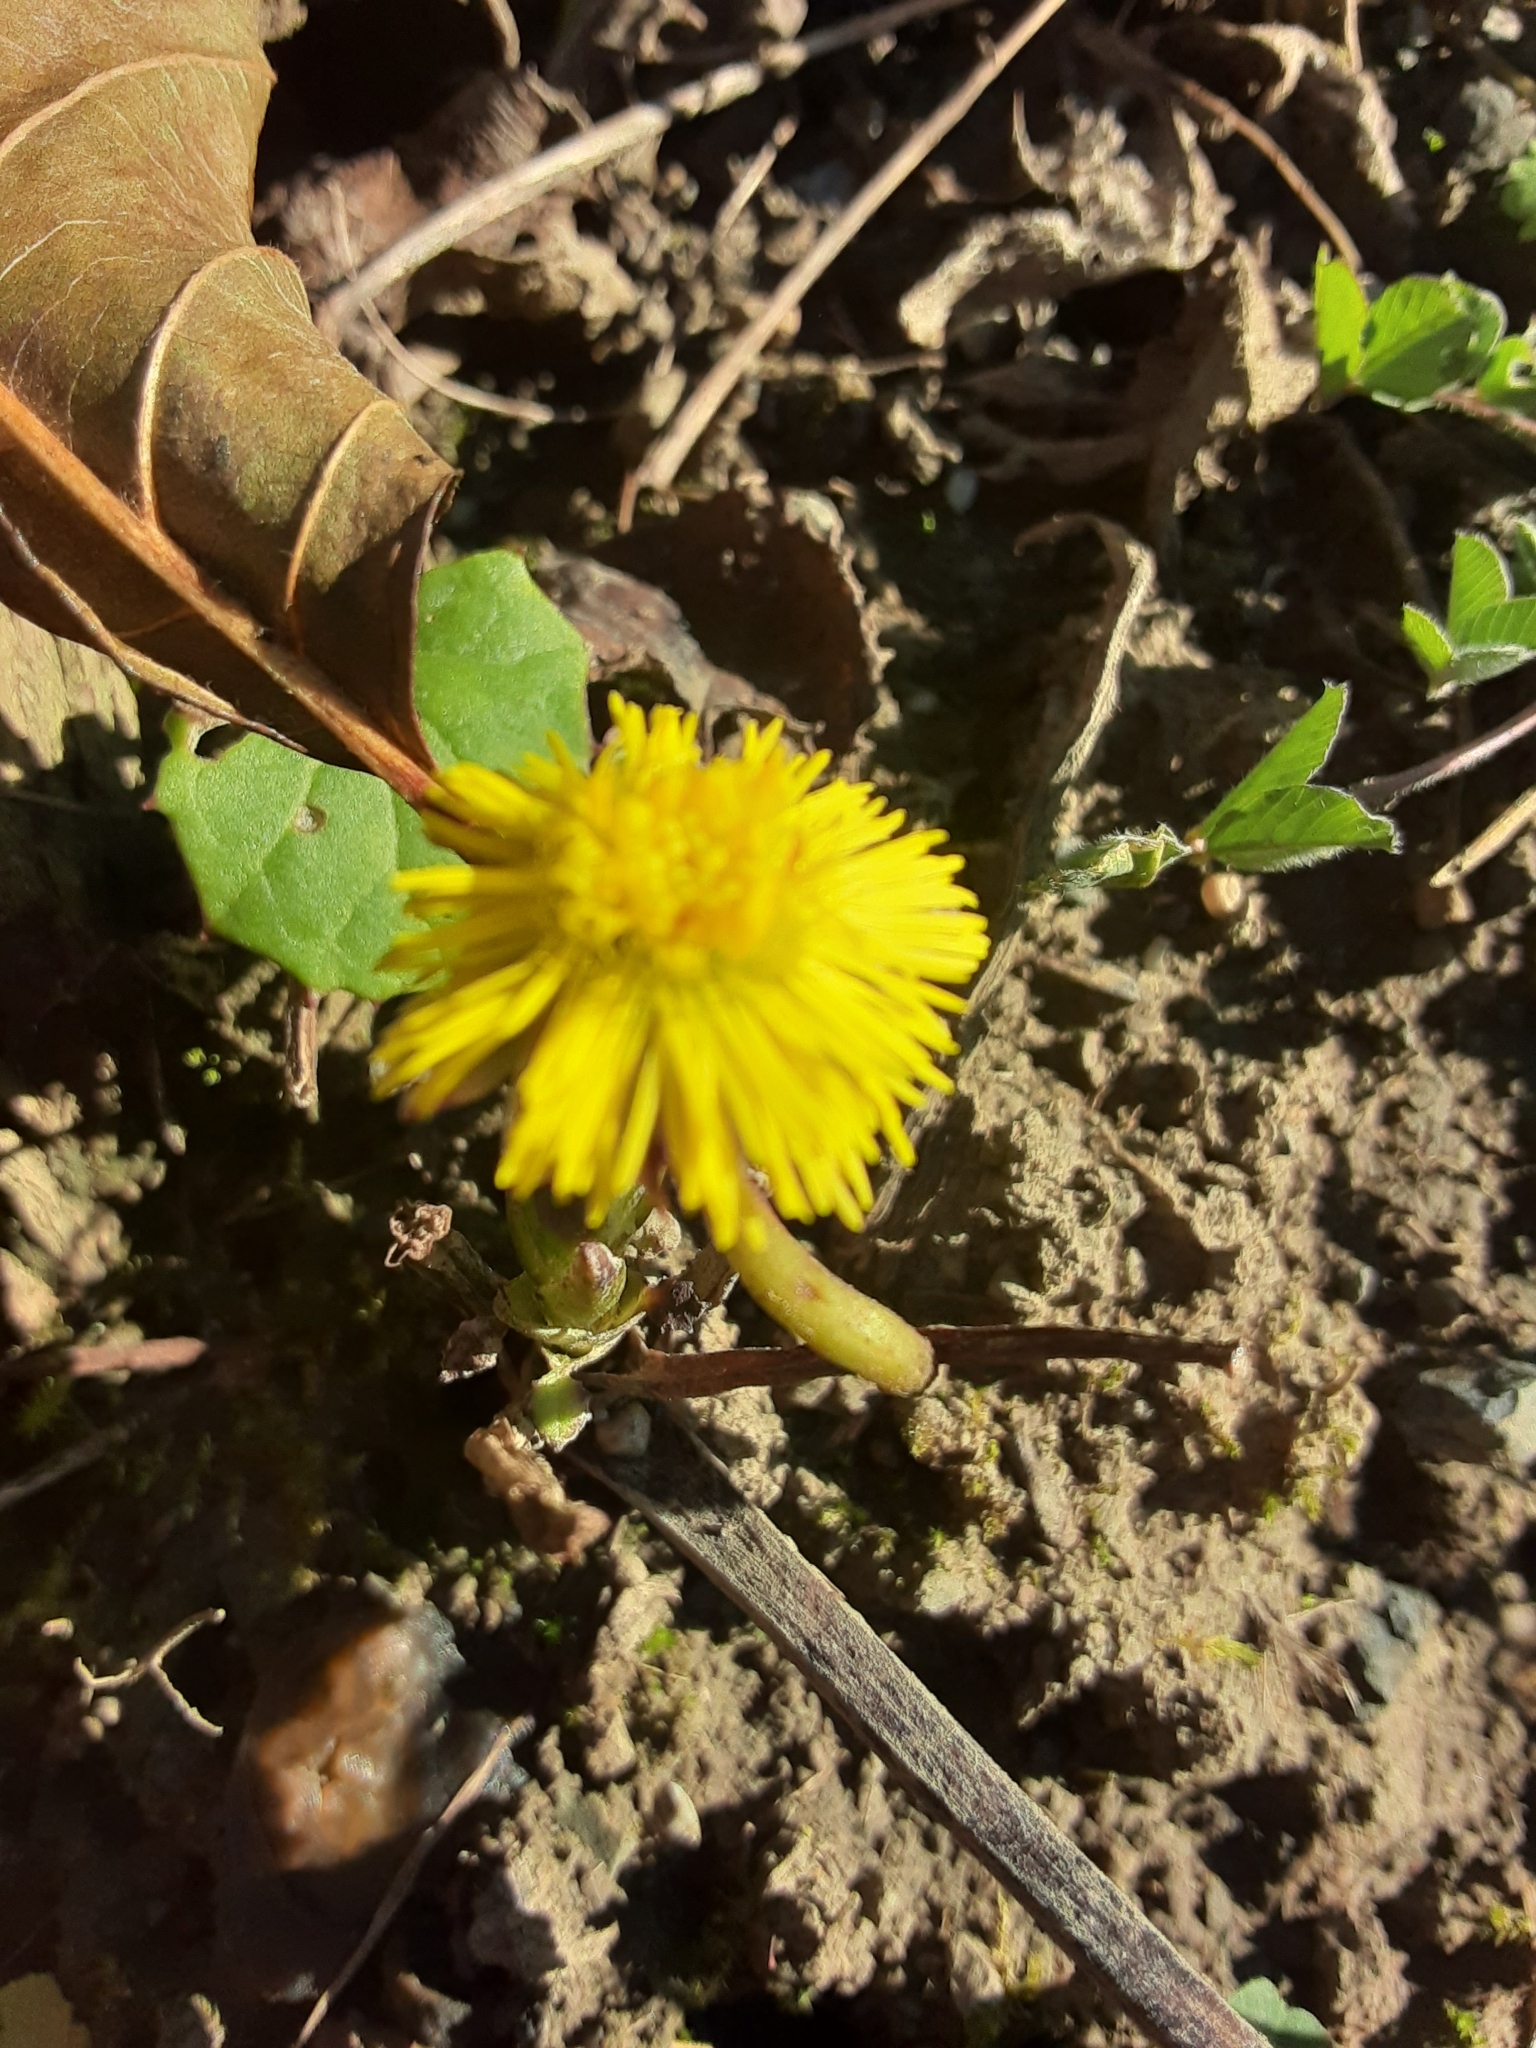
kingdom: Plantae
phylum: Tracheophyta
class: Magnoliopsida
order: Asterales
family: Asteraceae
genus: Tussilago
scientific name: Tussilago farfara
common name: Coltsfoot
